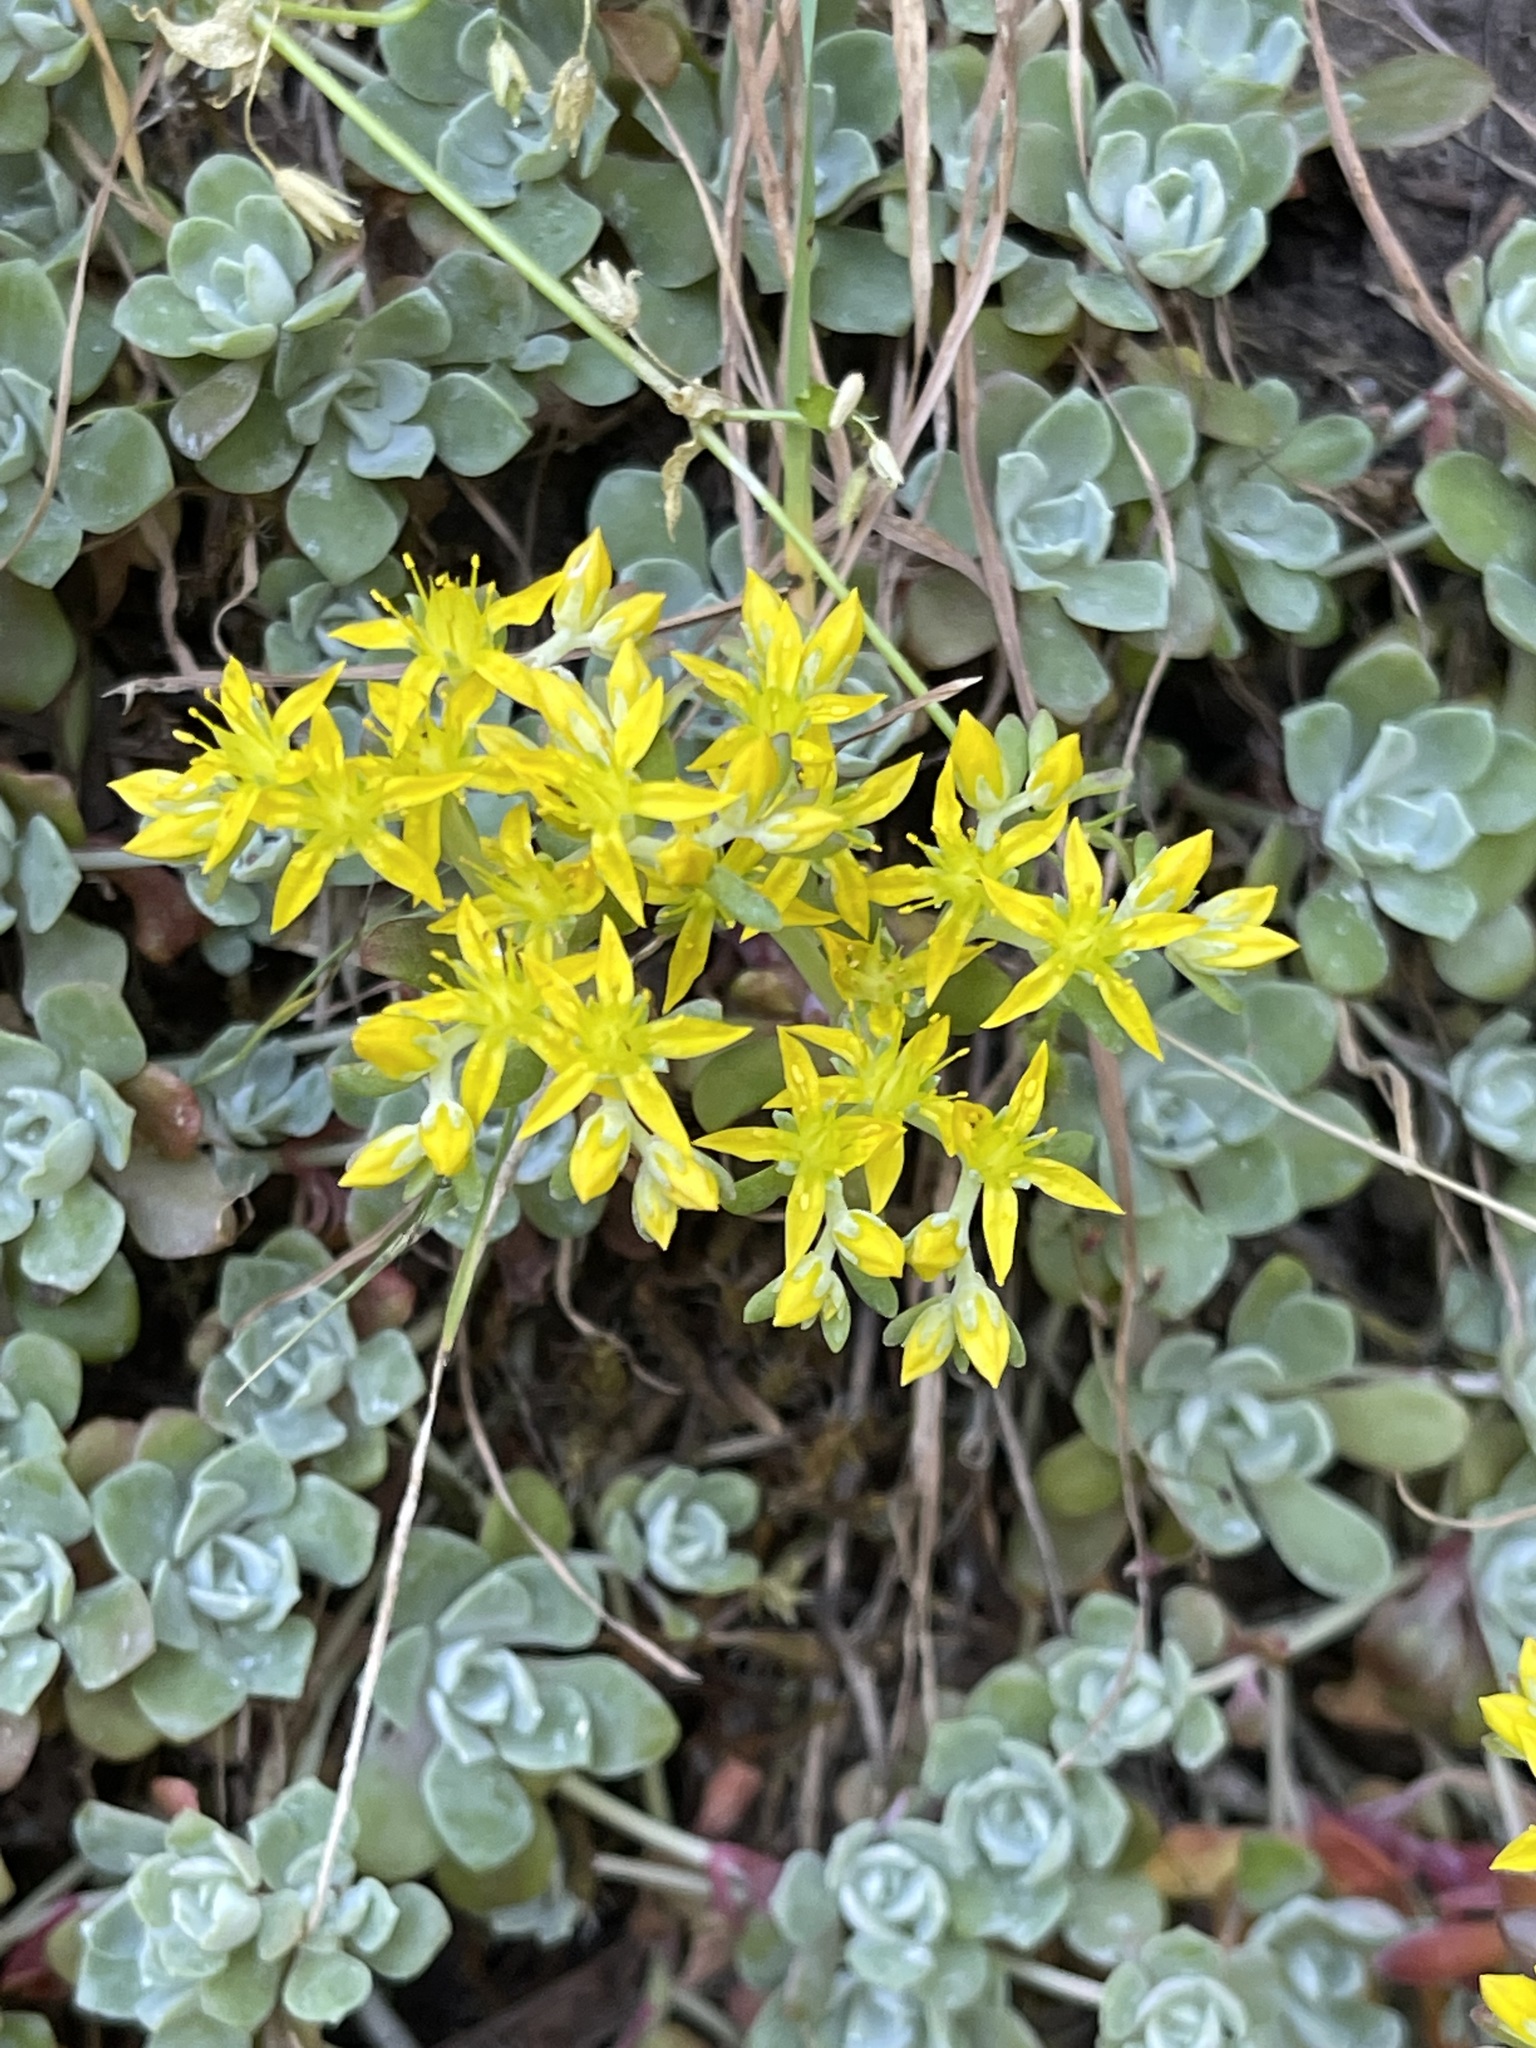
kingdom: Plantae
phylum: Tracheophyta
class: Magnoliopsida
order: Saxifragales
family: Crassulaceae
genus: Sedum
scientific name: Sedum spathulifolium
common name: Colorado stonecrop
